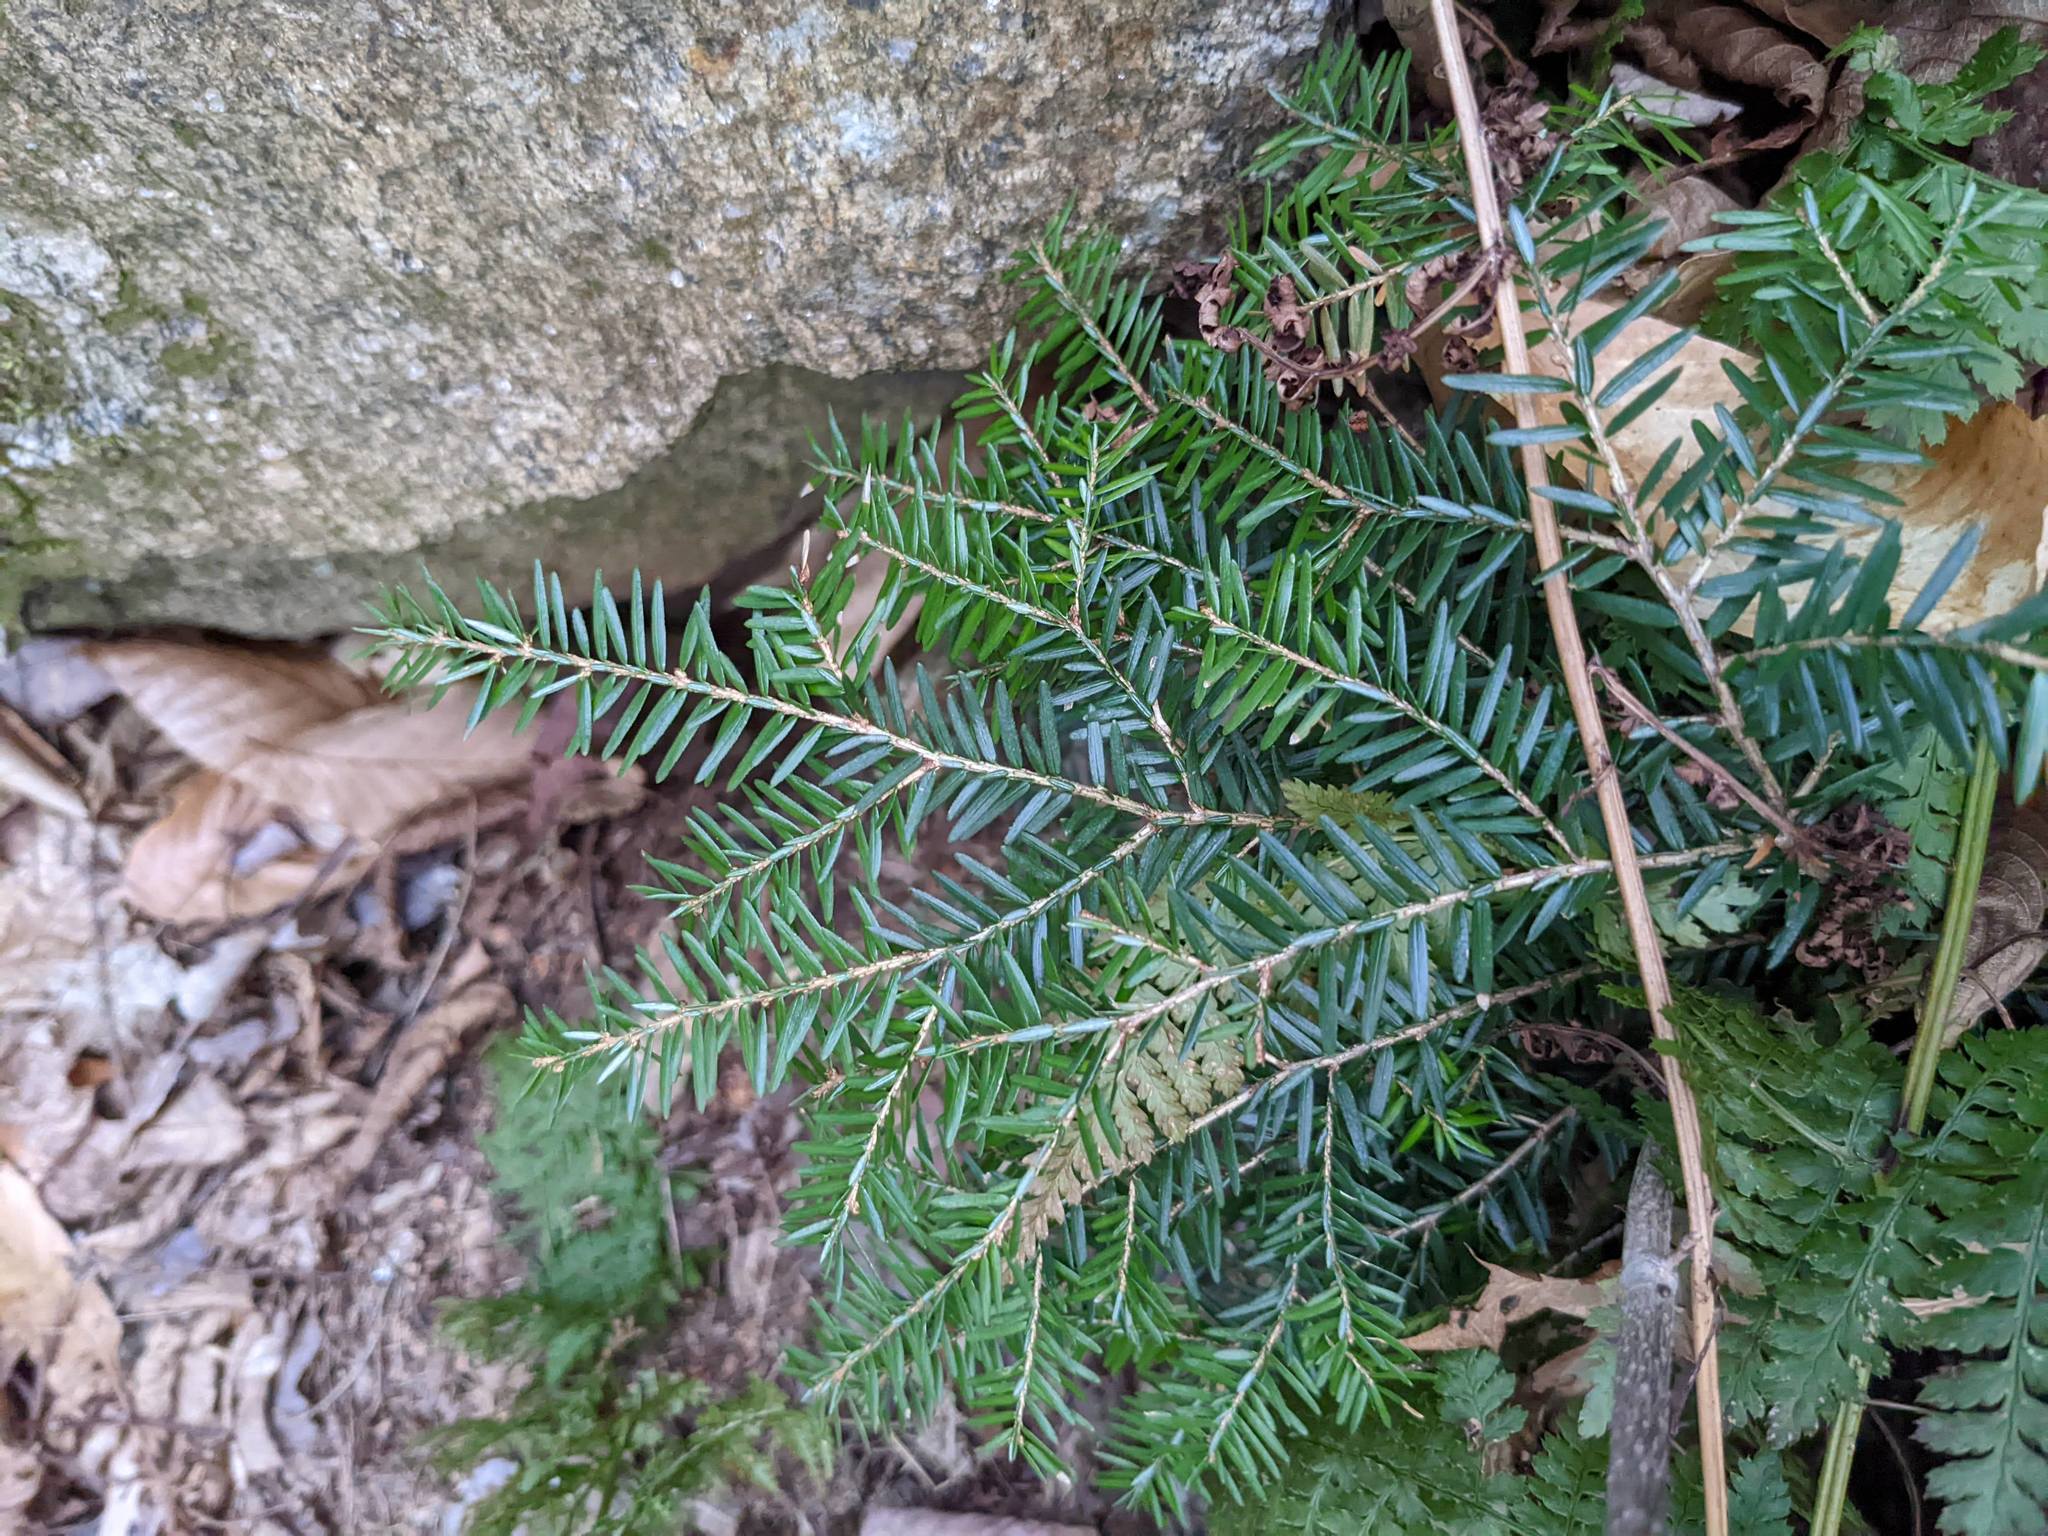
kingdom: Plantae
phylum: Tracheophyta
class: Pinopsida
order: Pinales
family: Pinaceae
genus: Tsuga
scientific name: Tsuga canadensis
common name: Eastern hemlock
